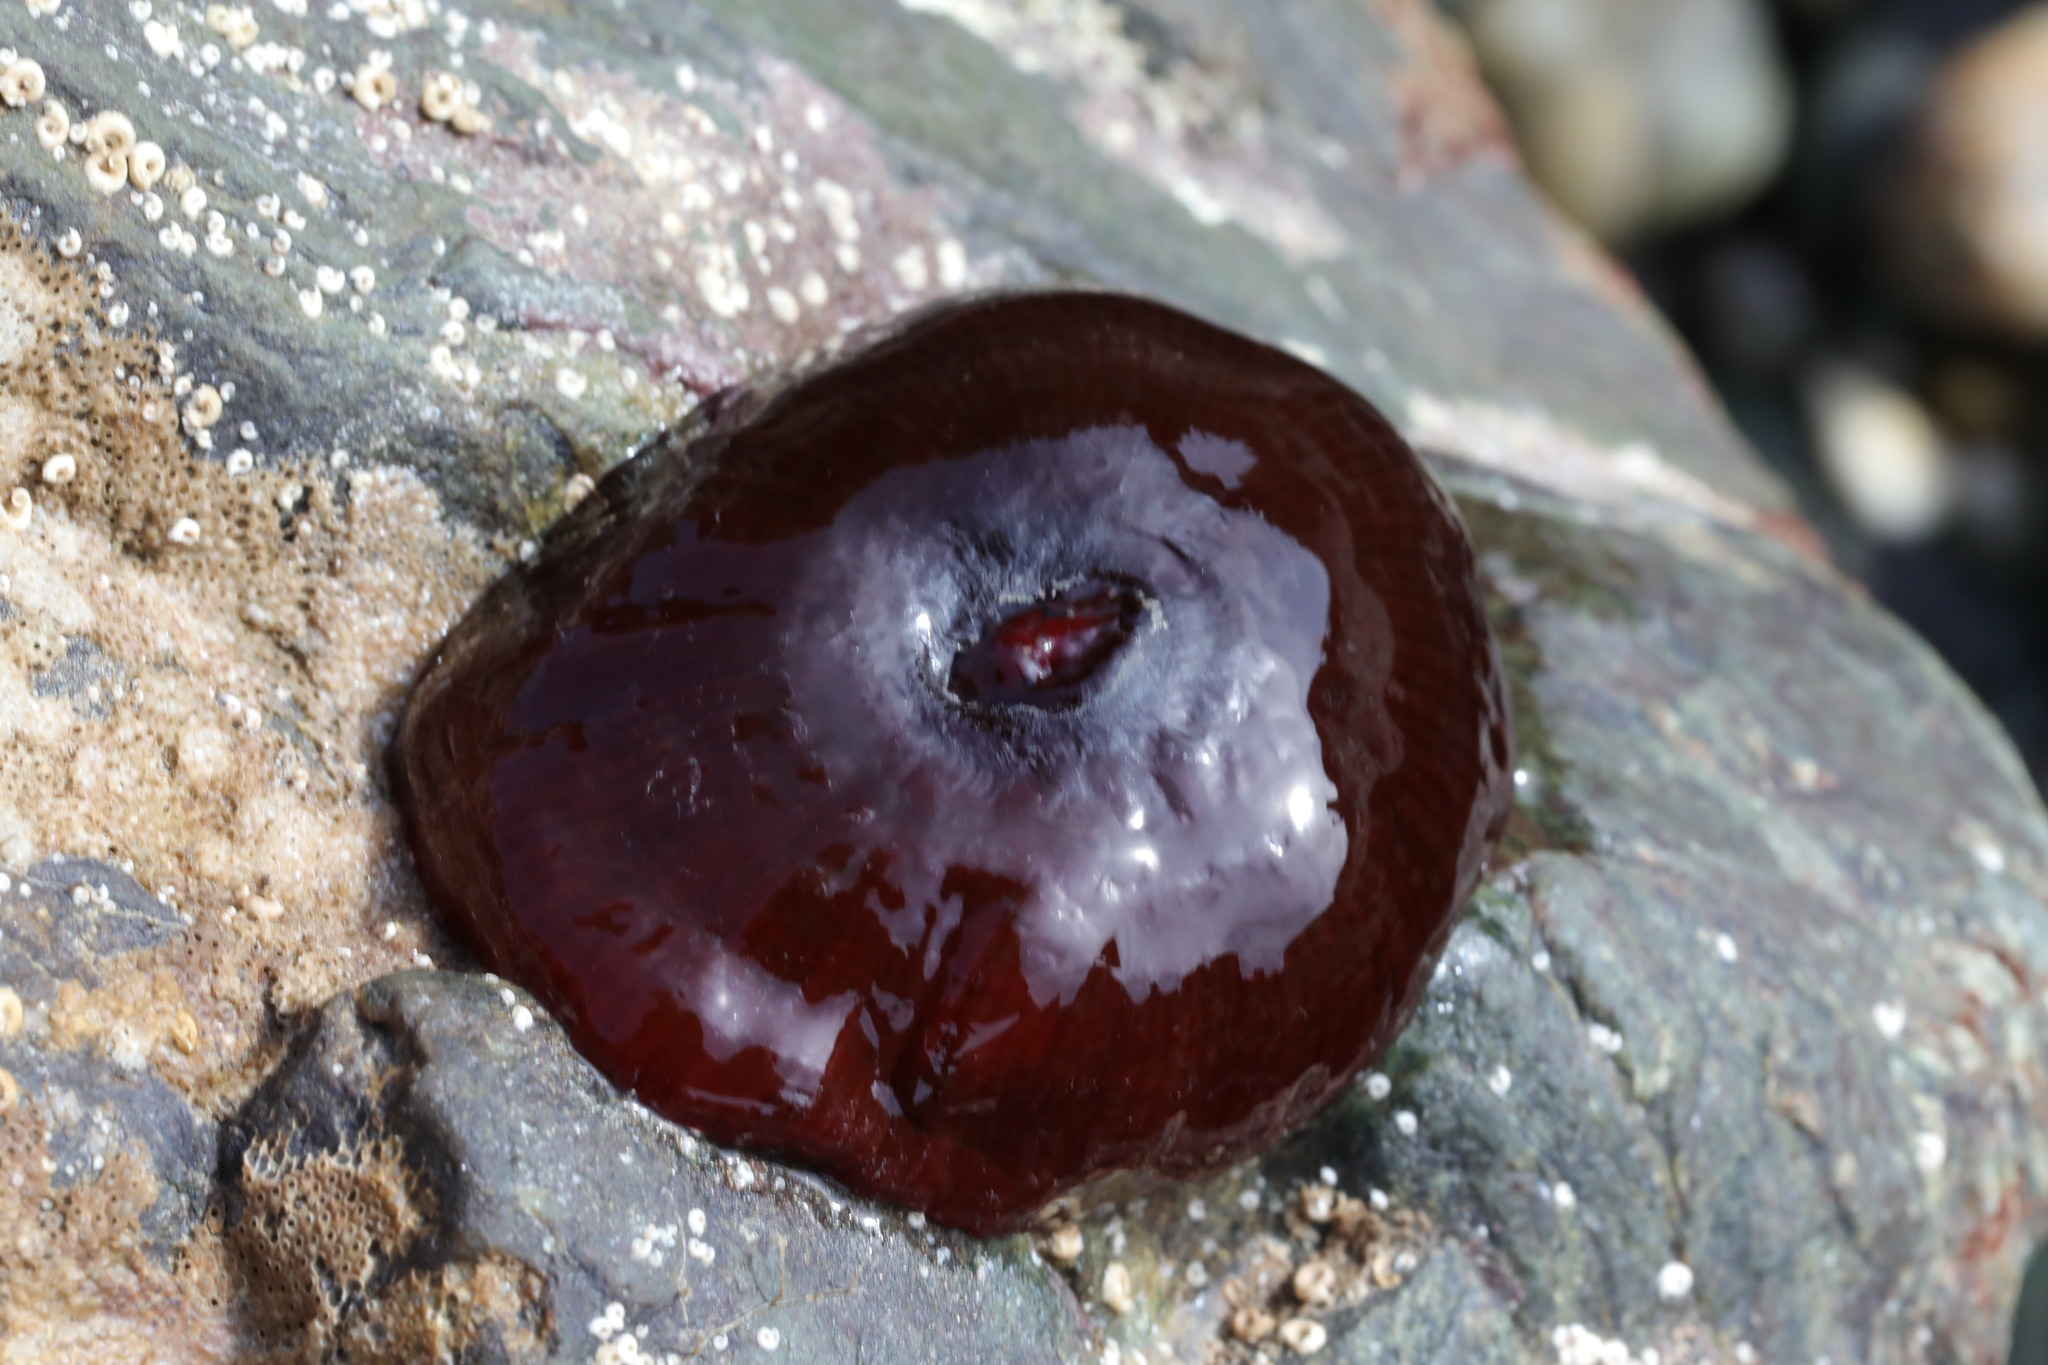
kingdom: Animalia
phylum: Cnidaria
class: Anthozoa
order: Actiniaria
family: Actiniidae
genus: Actinia
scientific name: Actinia equina
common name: Beadlet anemone
